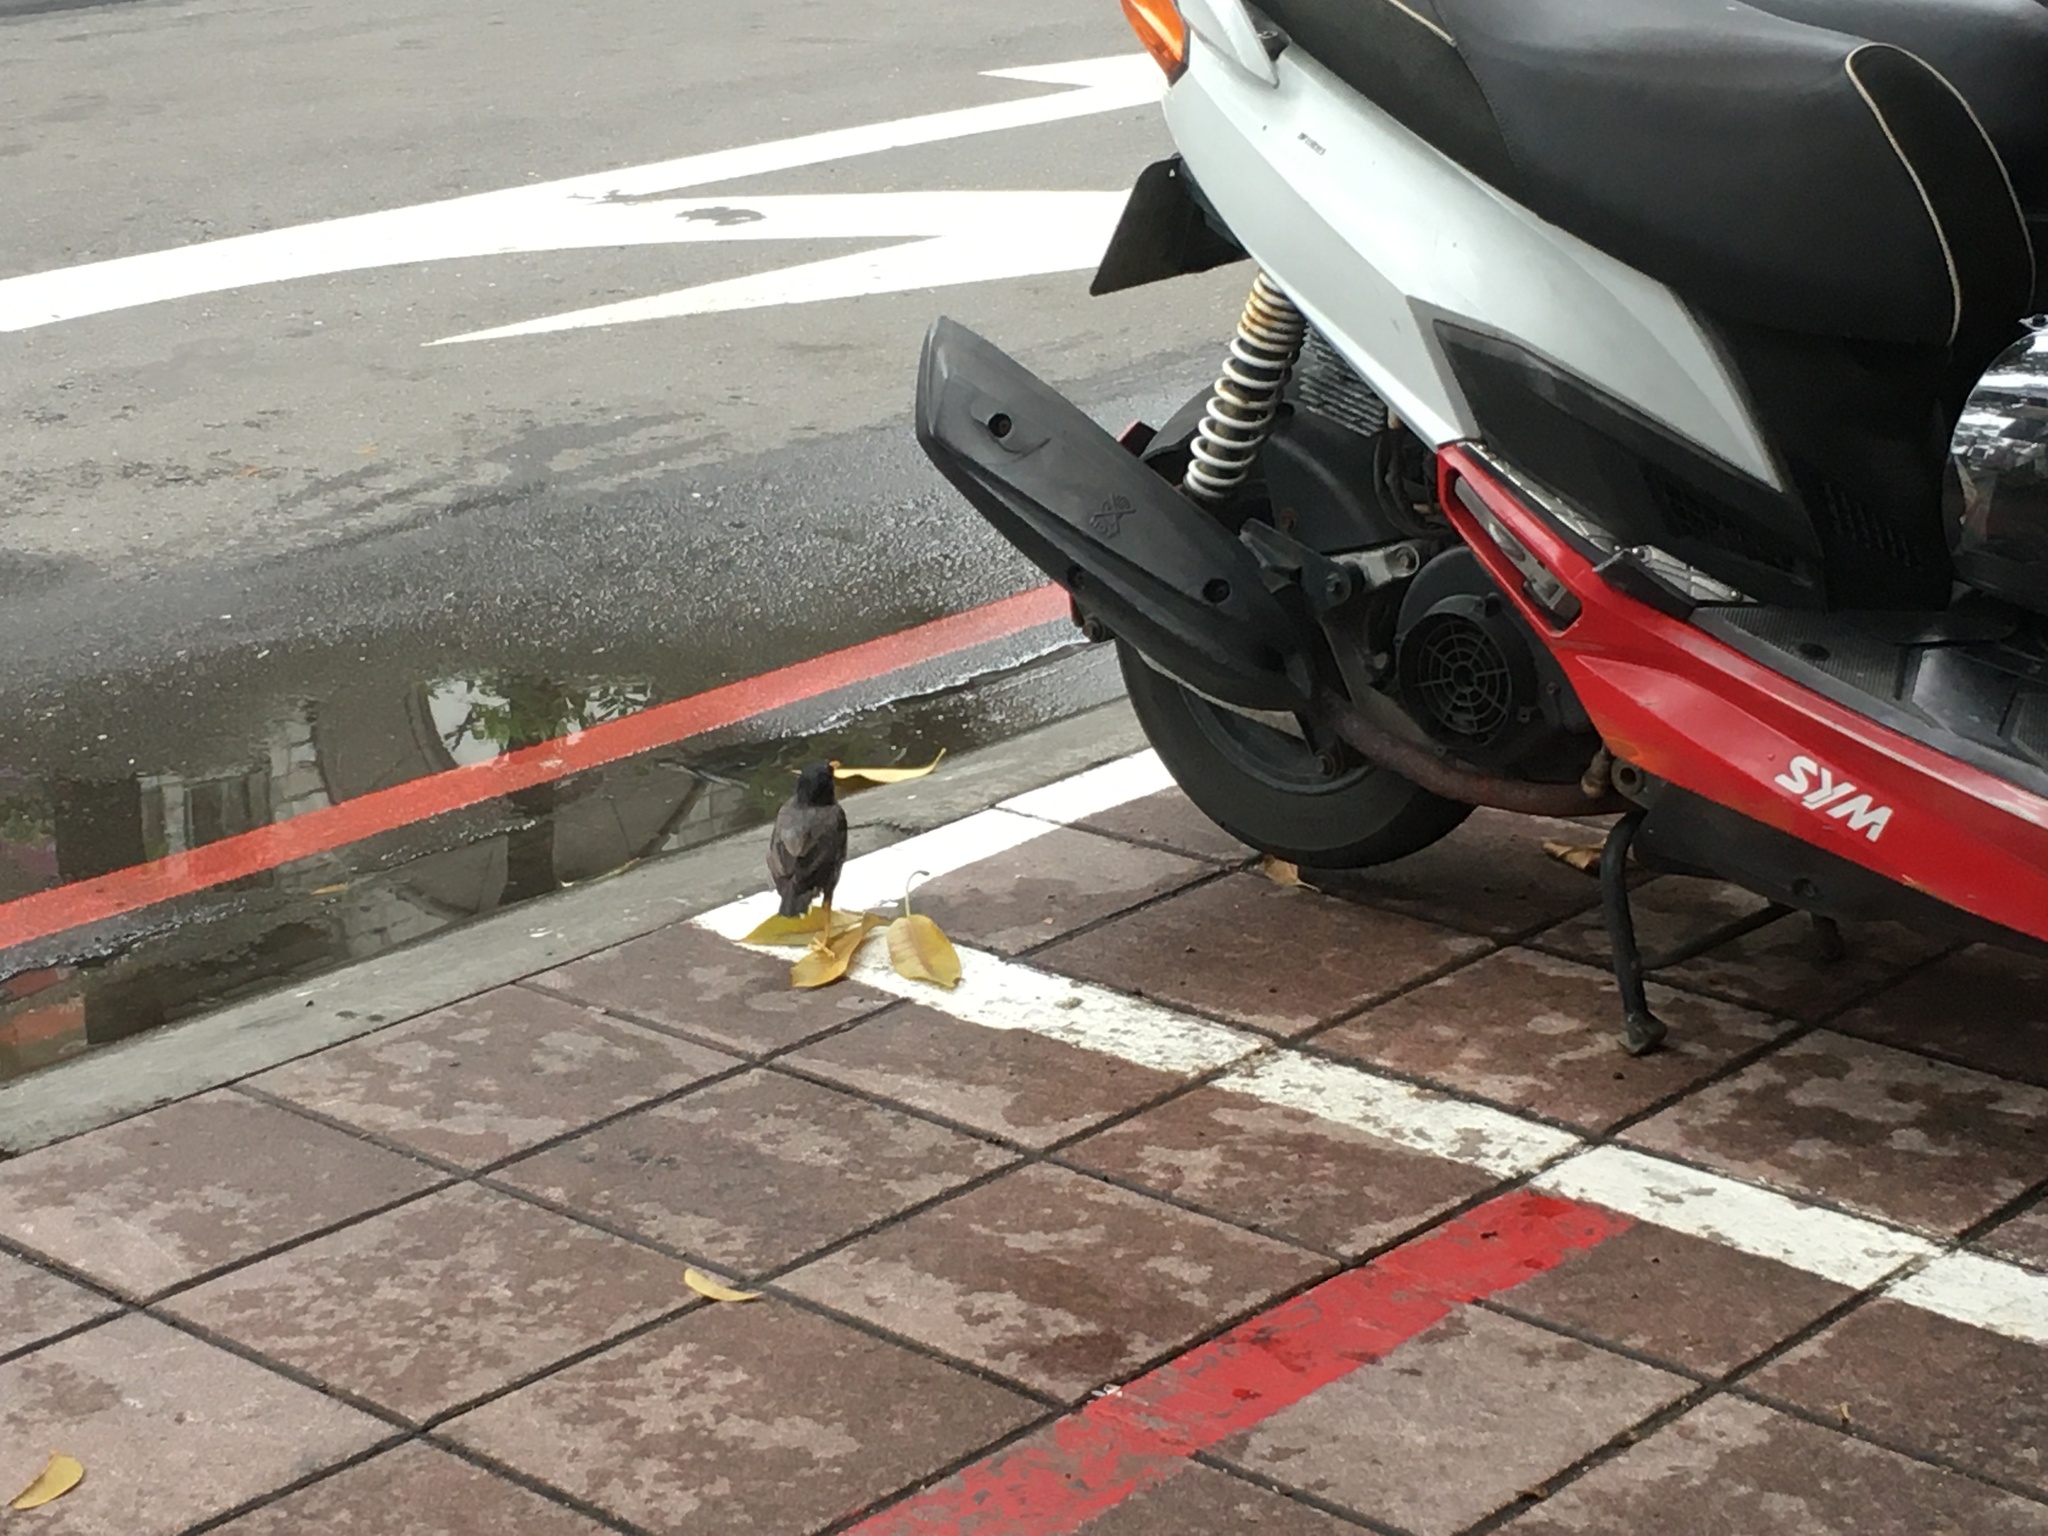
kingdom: Animalia
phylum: Chordata
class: Aves
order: Passeriformes
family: Sturnidae
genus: Acridotheres
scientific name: Acridotheres javanicus
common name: Javan myna
